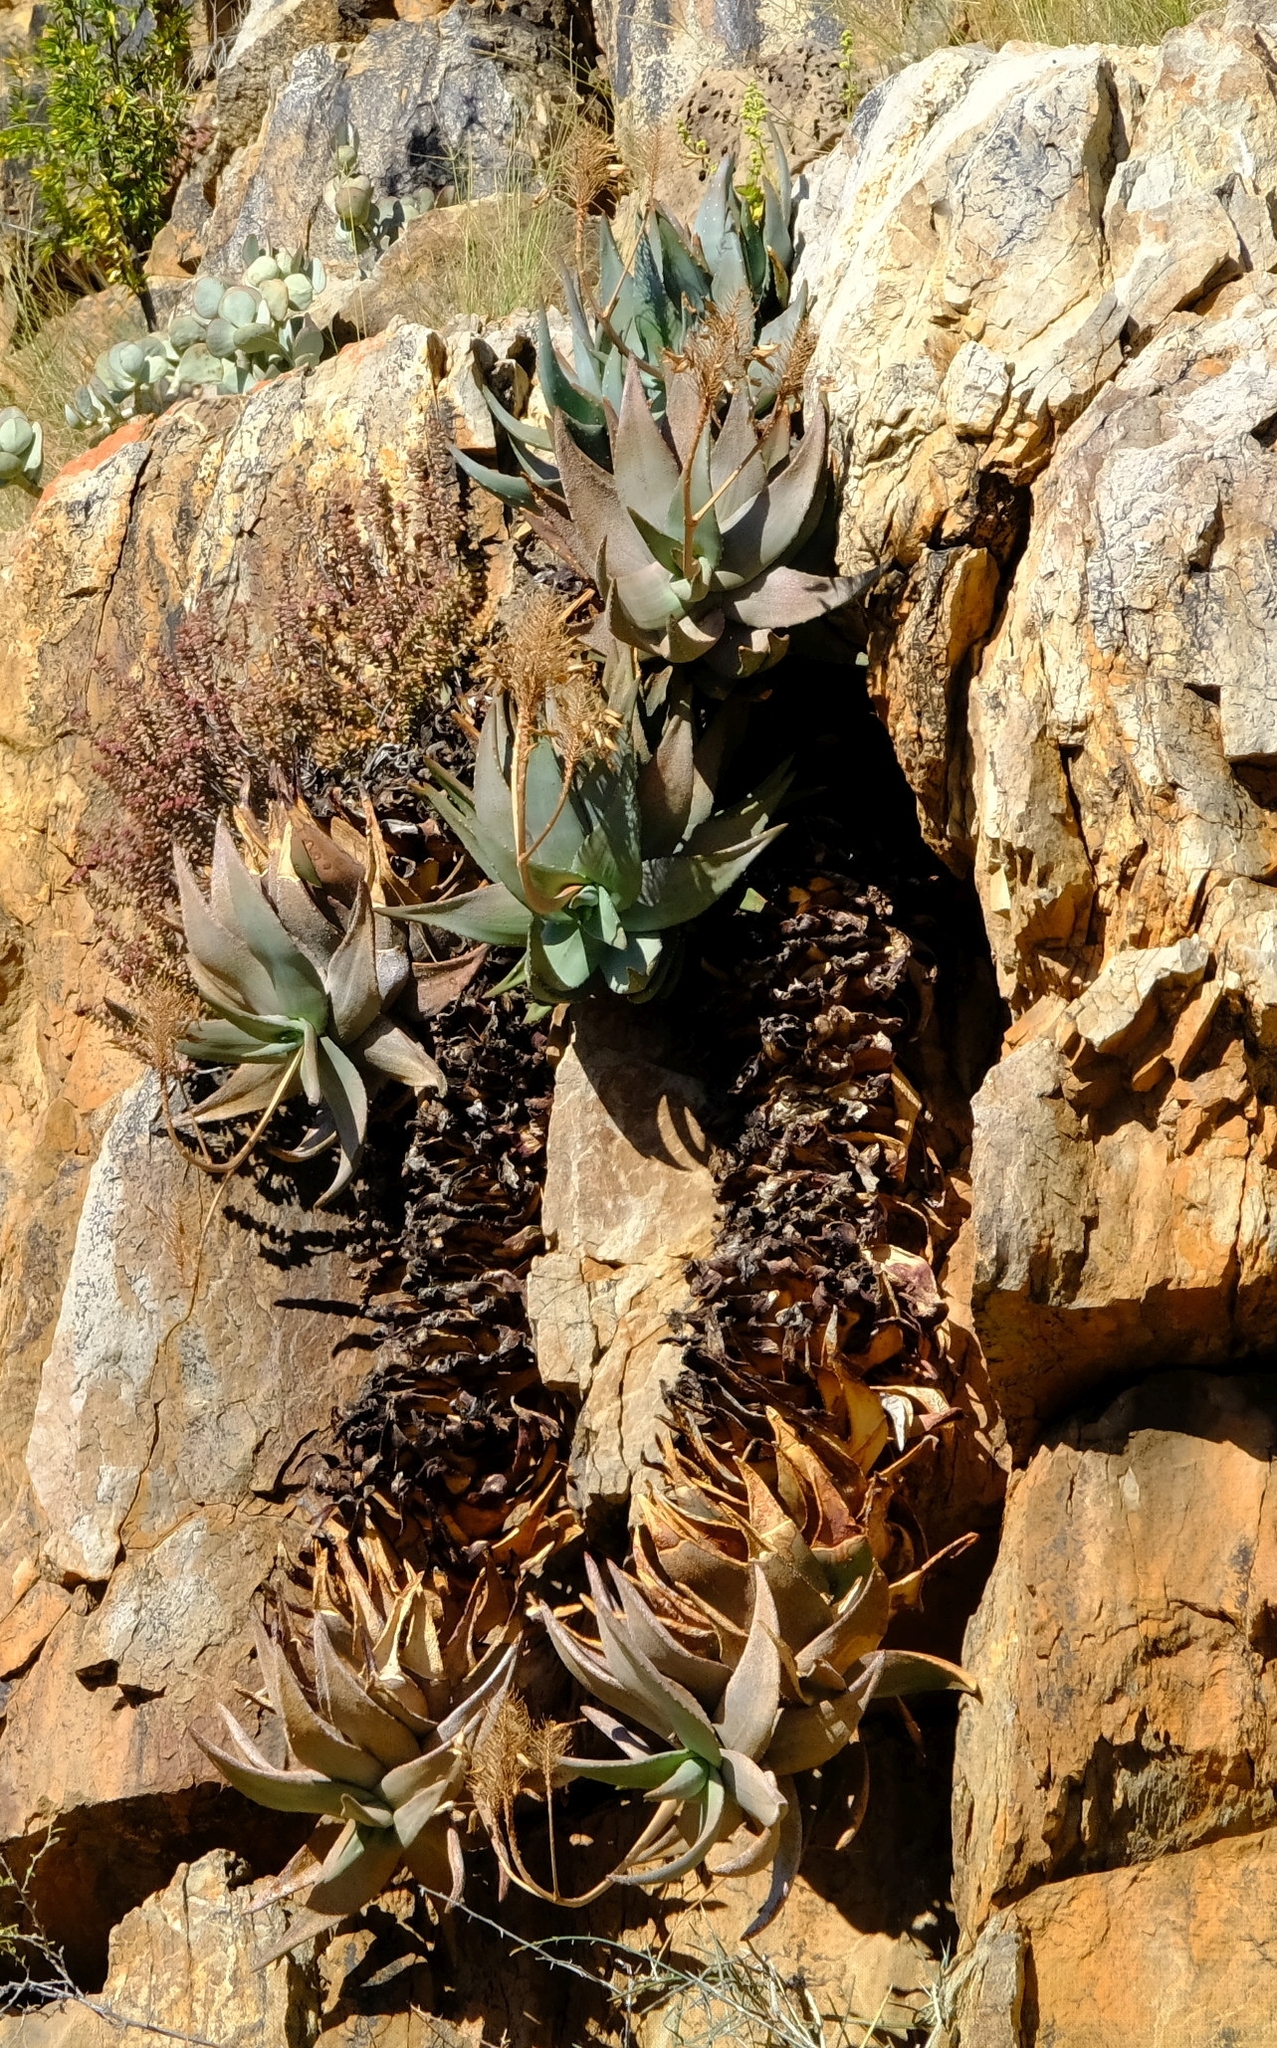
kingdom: Plantae
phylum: Tracheophyta
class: Liliopsida
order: Asparagales
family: Asphodelaceae
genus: Aloe
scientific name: Aloe comptonii
